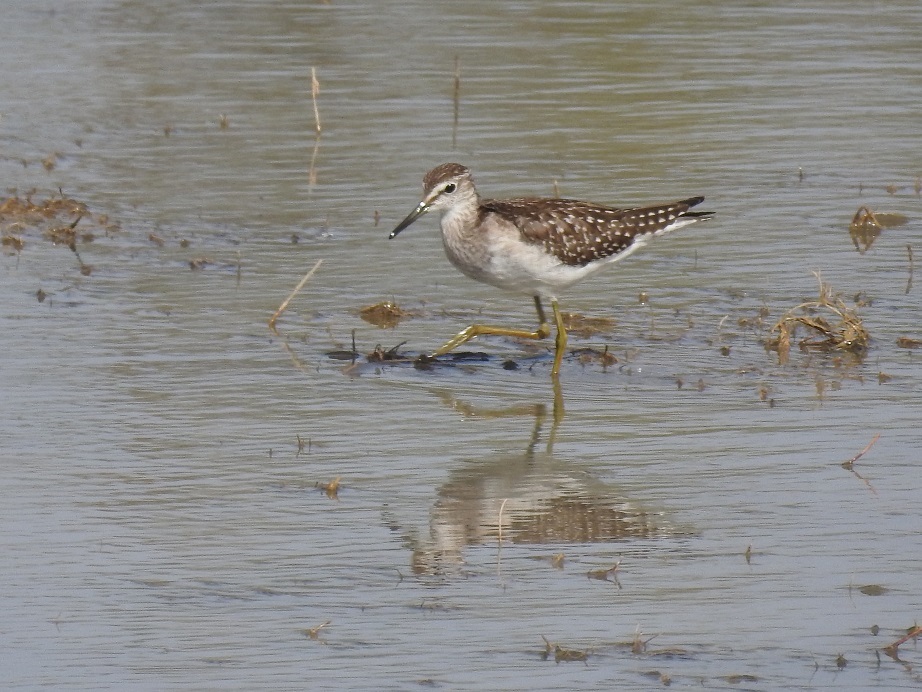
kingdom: Animalia
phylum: Chordata
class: Aves
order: Charadriiformes
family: Scolopacidae
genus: Tringa
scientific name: Tringa glareola
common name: Wood sandpiper
